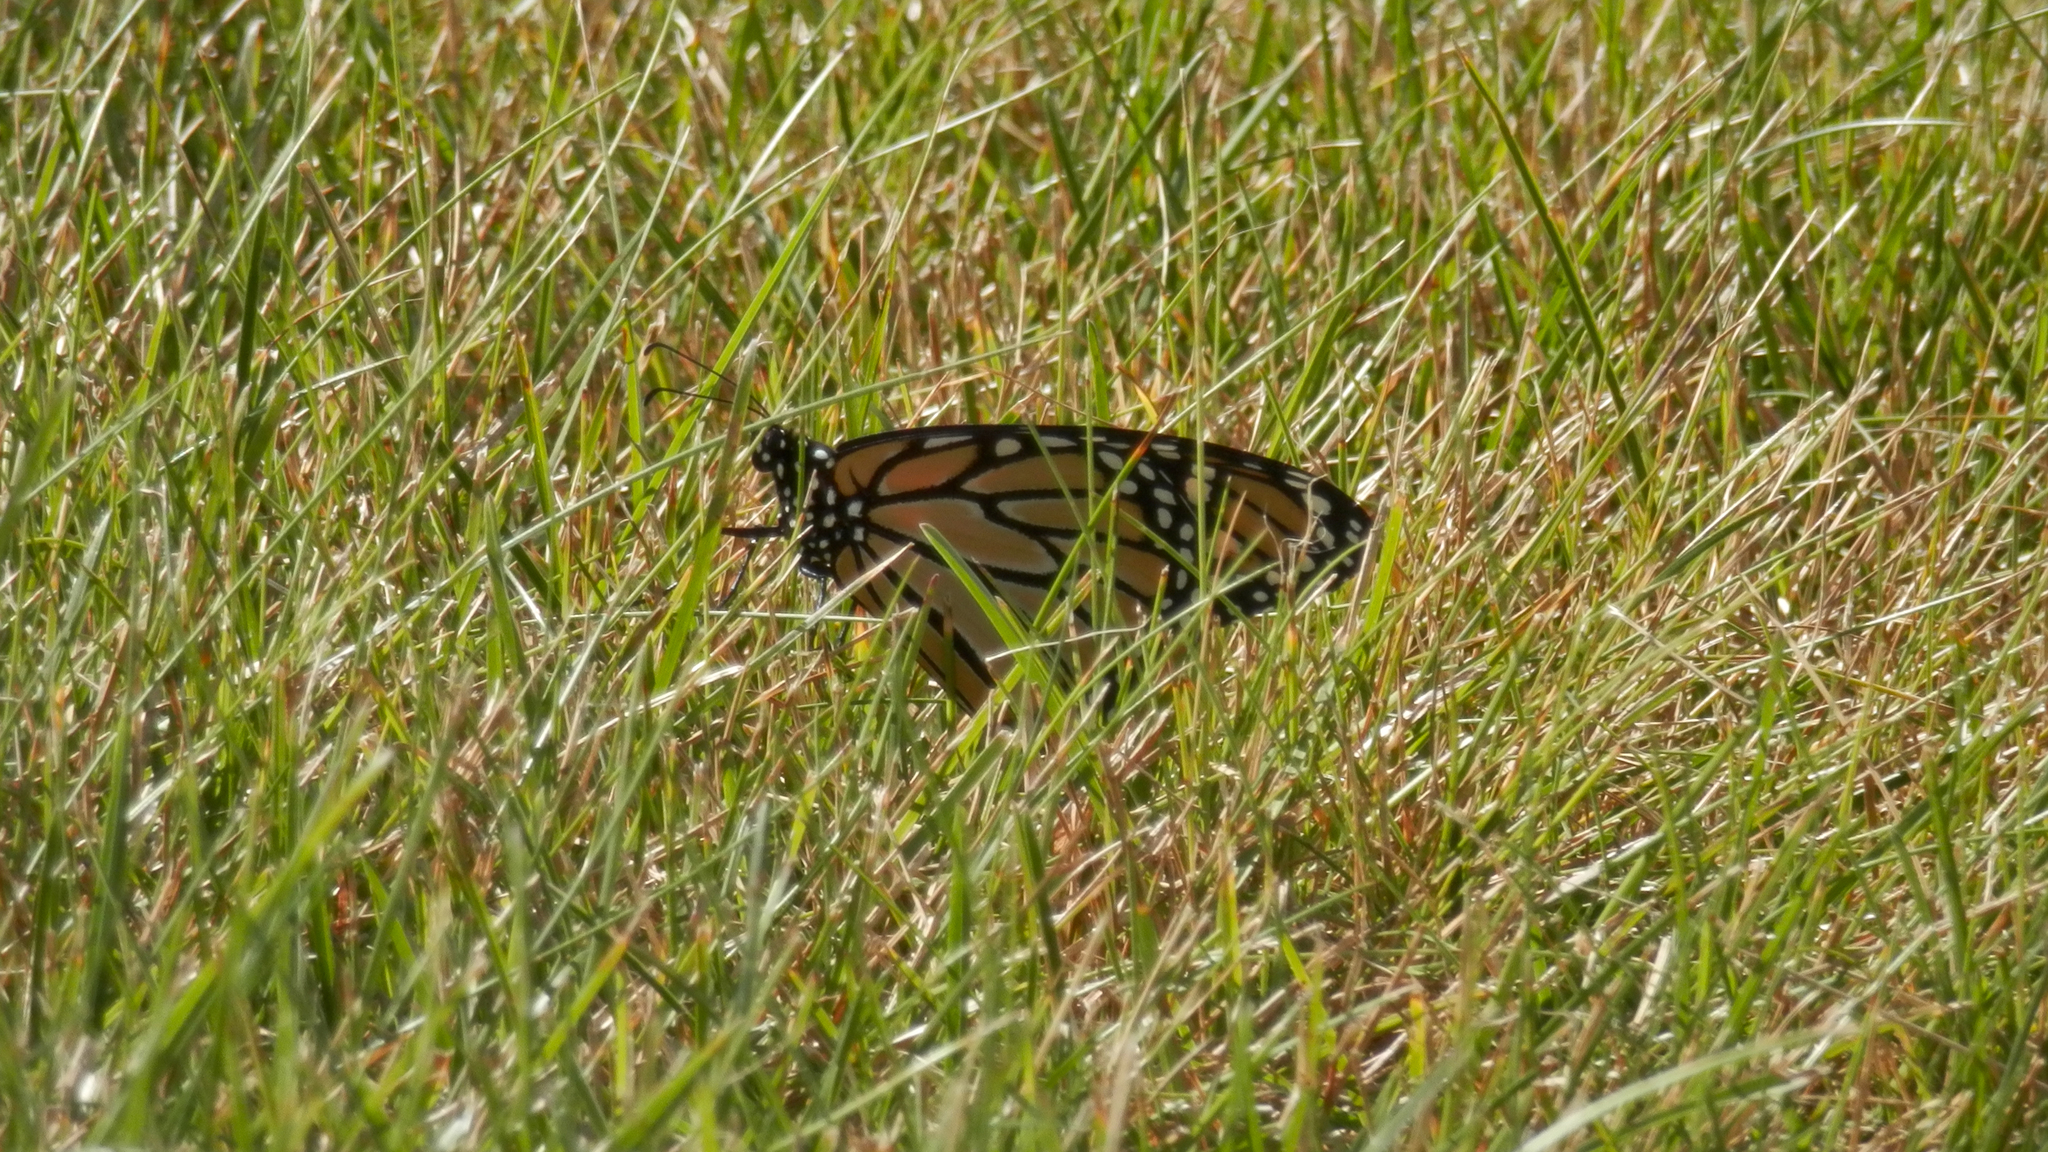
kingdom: Animalia
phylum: Arthropoda
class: Insecta
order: Lepidoptera
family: Nymphalidae
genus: Danaus
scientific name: Danaus plexippus
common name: Monarch
